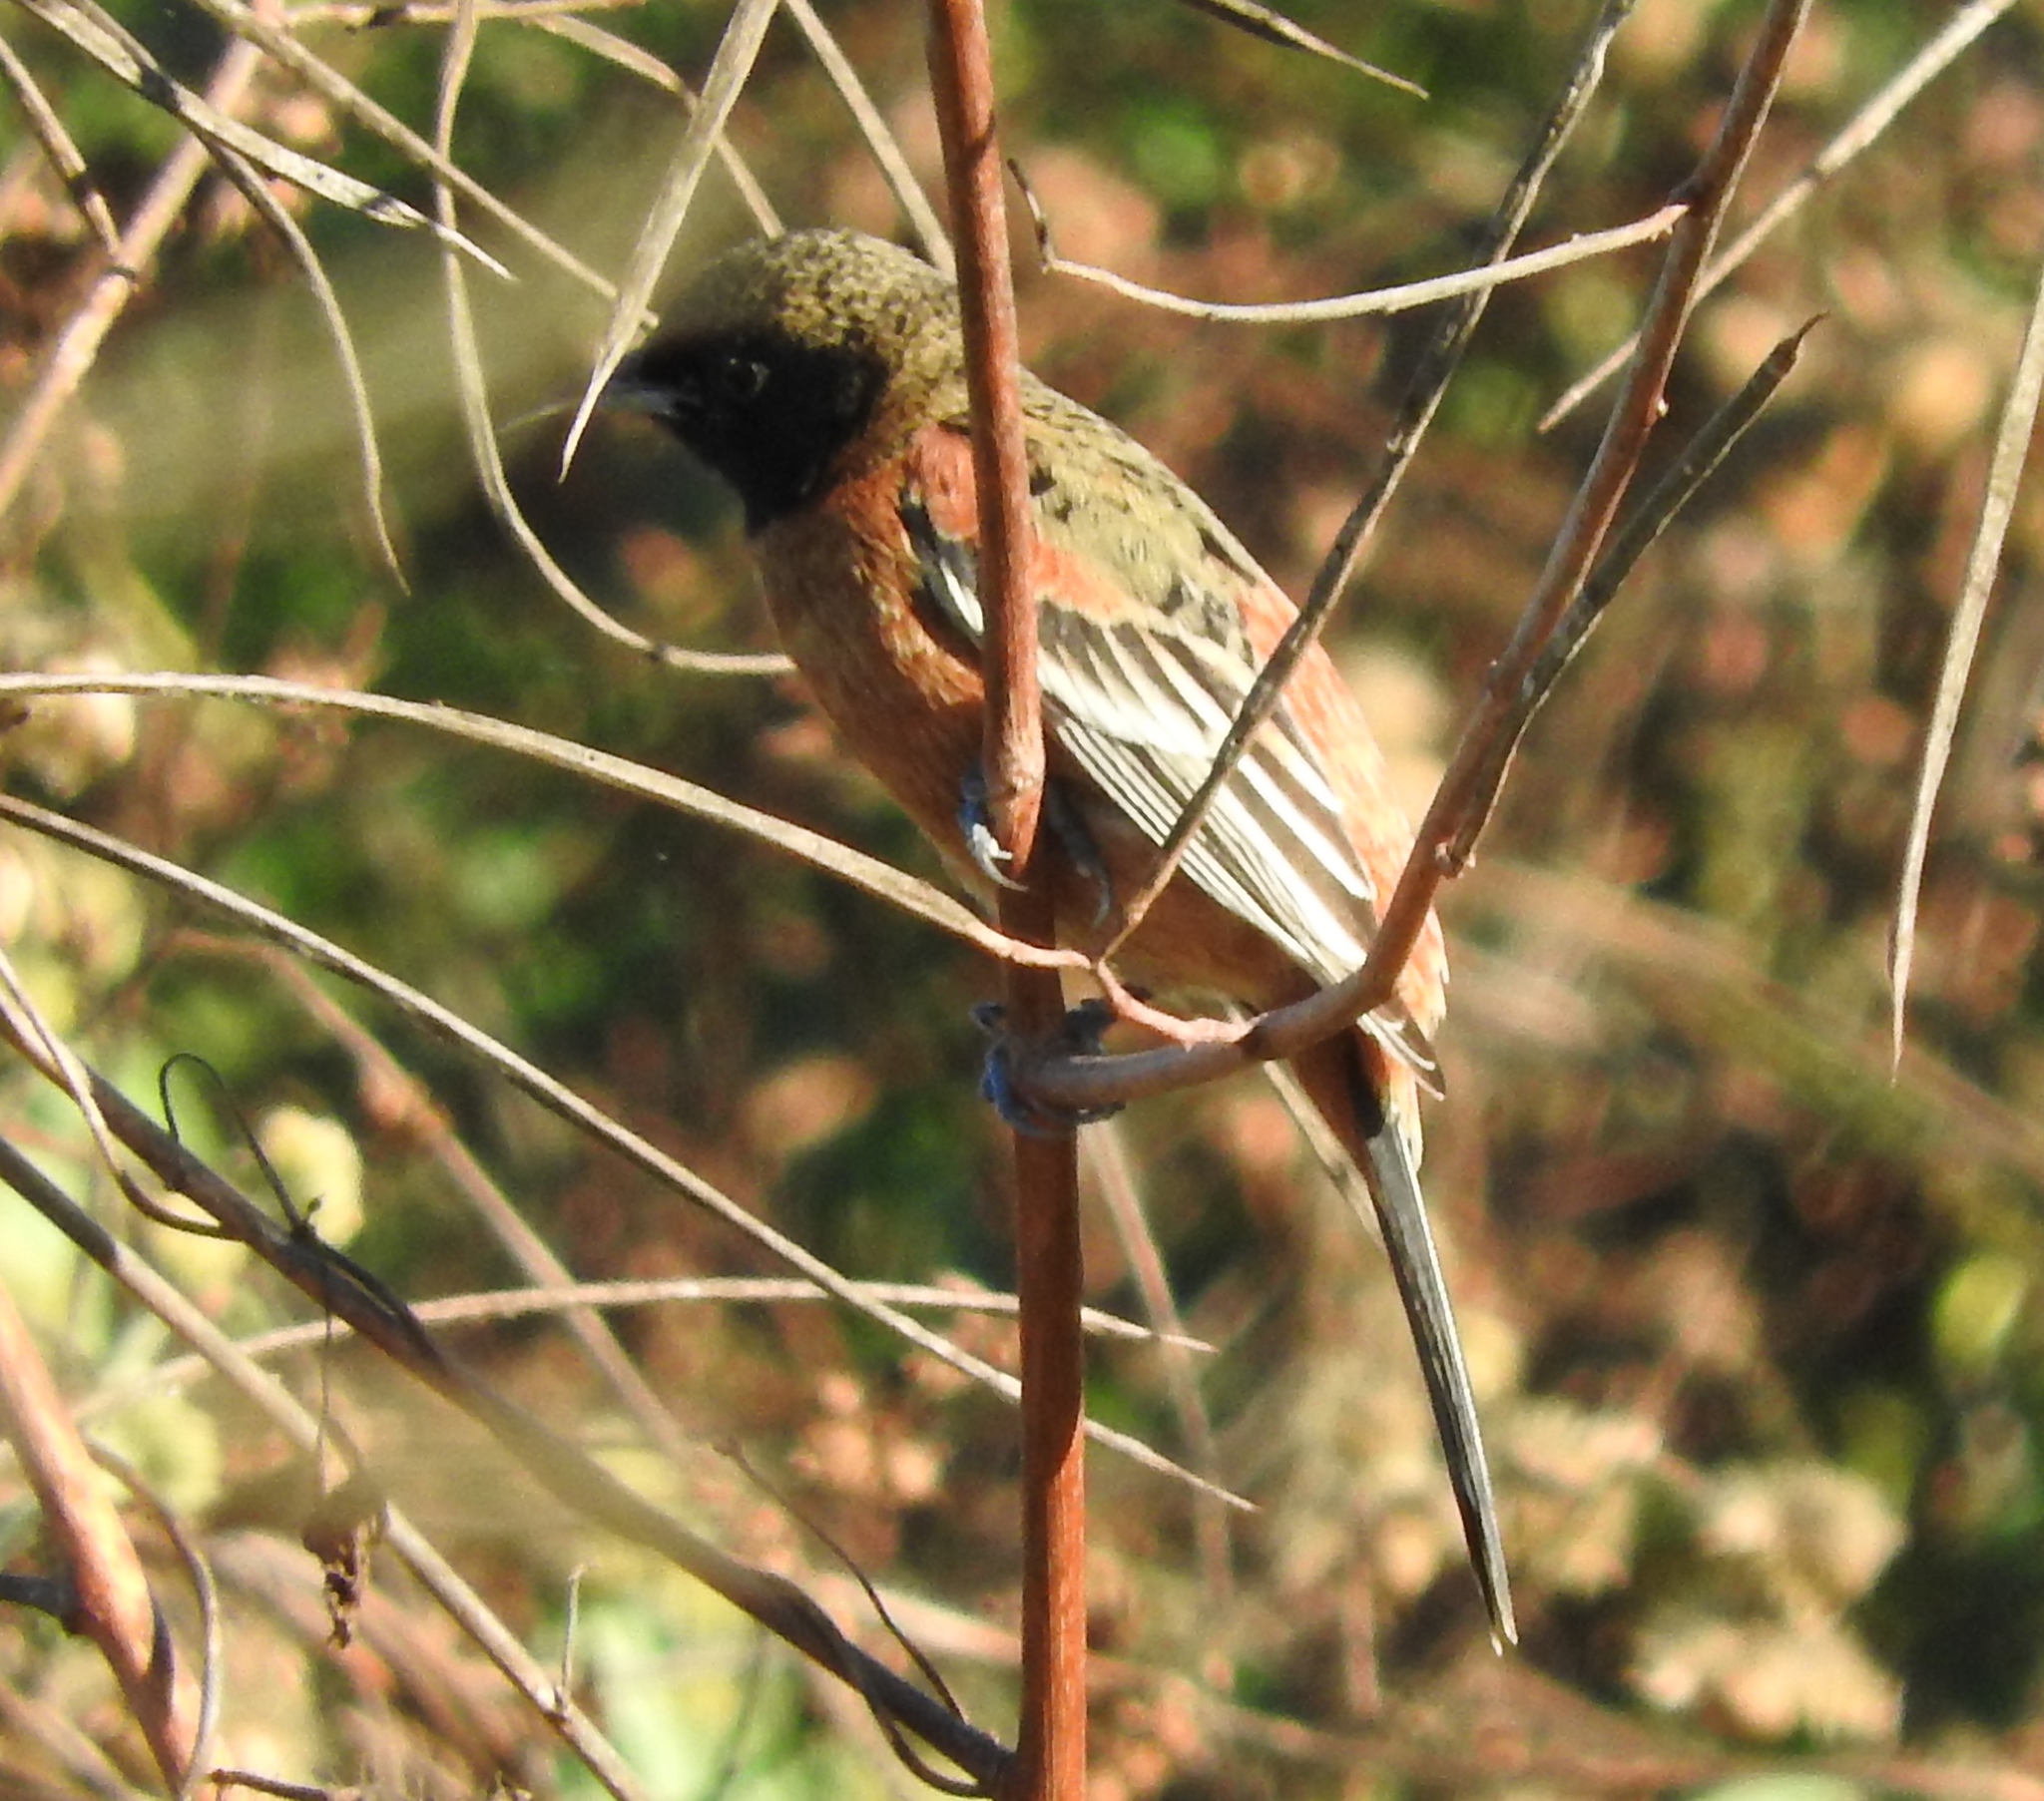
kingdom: Animalia
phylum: Chordata
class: Aves
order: Passeriformes
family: Icteridae
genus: Icterus
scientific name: Icterus spurius
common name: Orchard oriole
